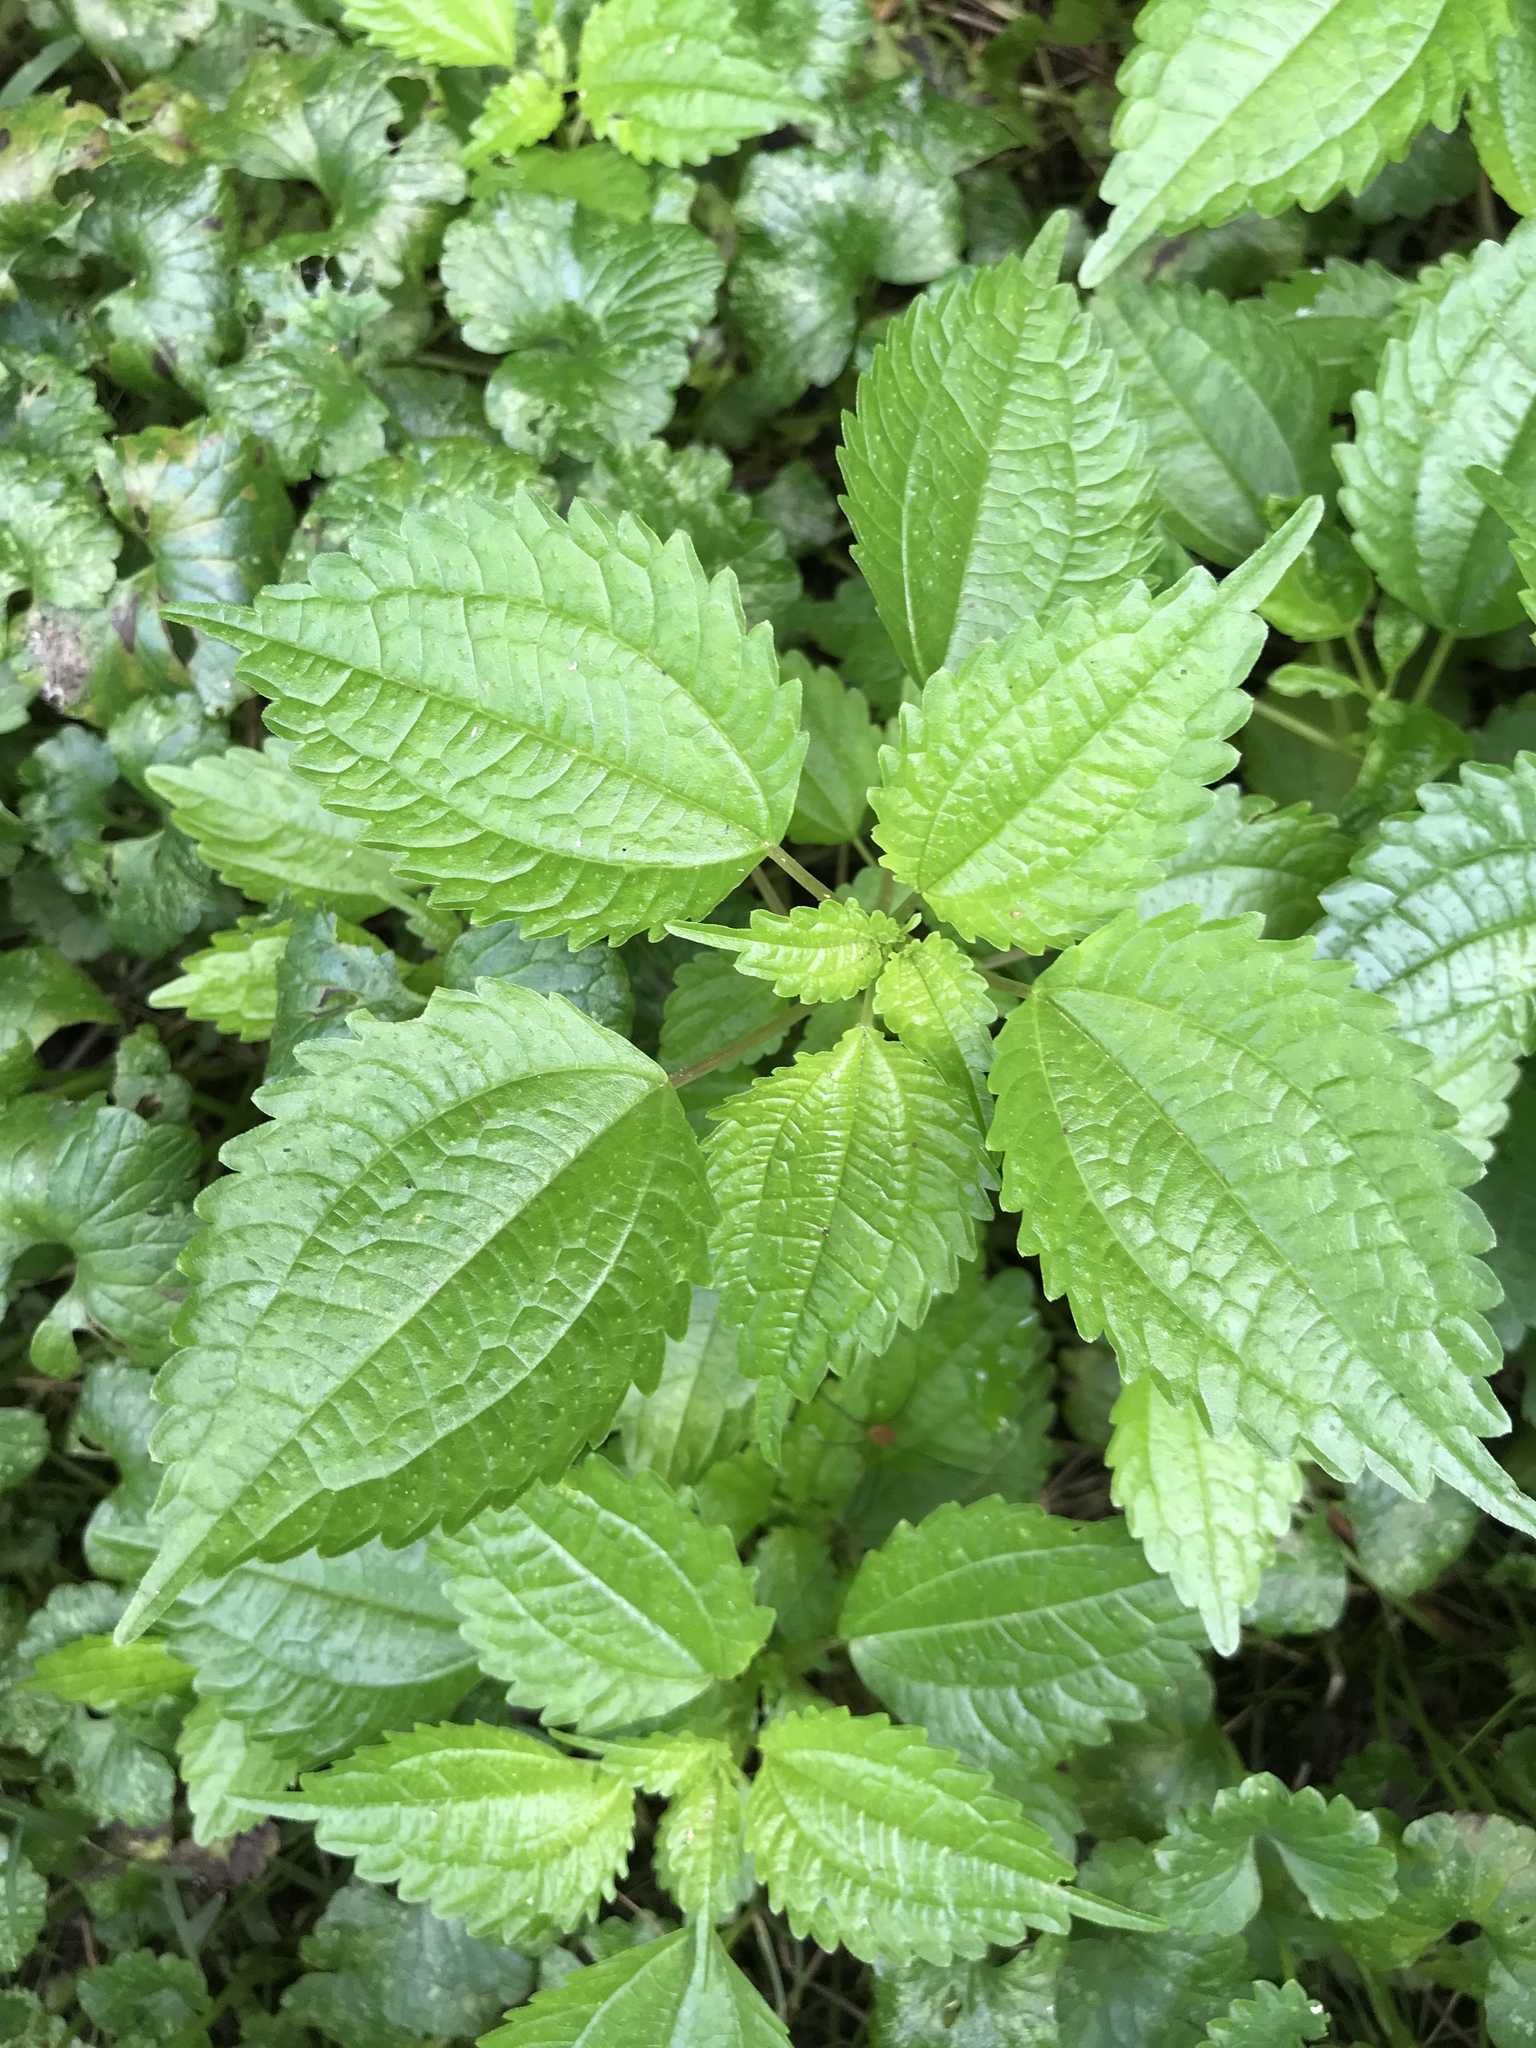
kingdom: Plantae
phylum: Tracheophyta
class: Magnoliopsida
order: Rosales
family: Urticaceae
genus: Pilea
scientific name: Pilea pumila
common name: Clearweed
